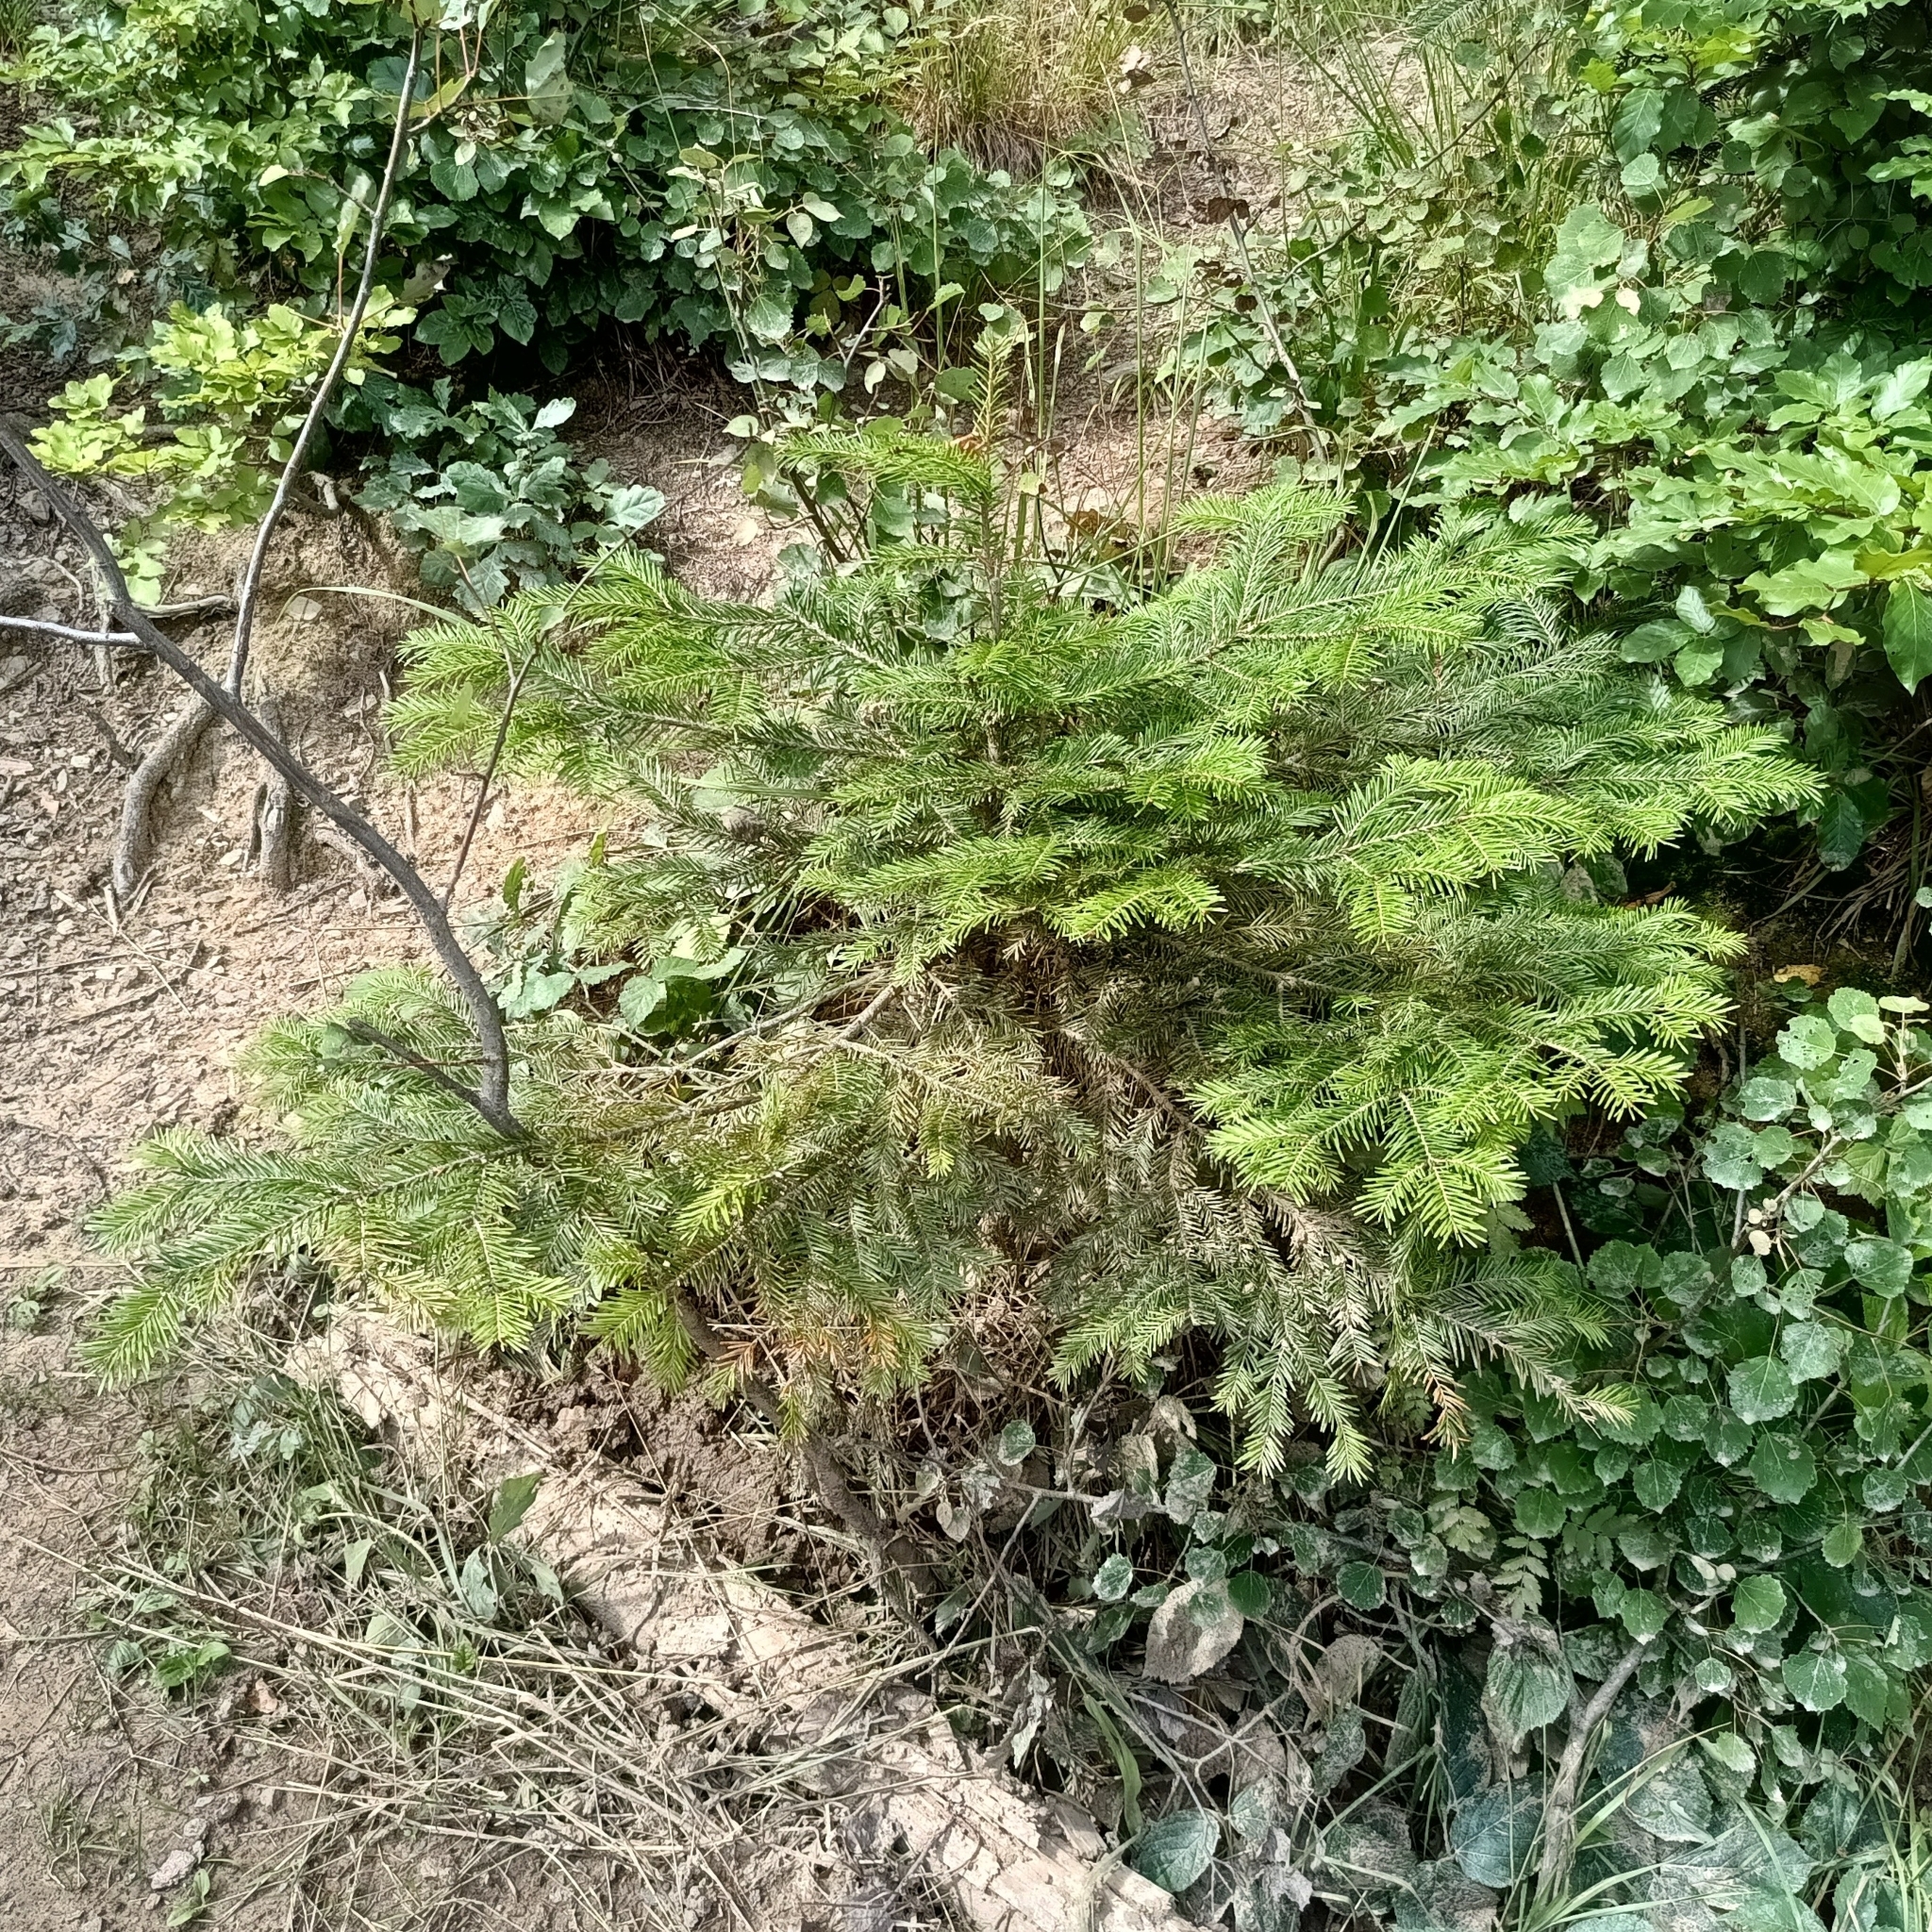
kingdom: Plantae
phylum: Tracheophyta
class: Pinopsida
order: Pinales
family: Pinaceae
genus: Abies
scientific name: Abies alba
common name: Silver fir
